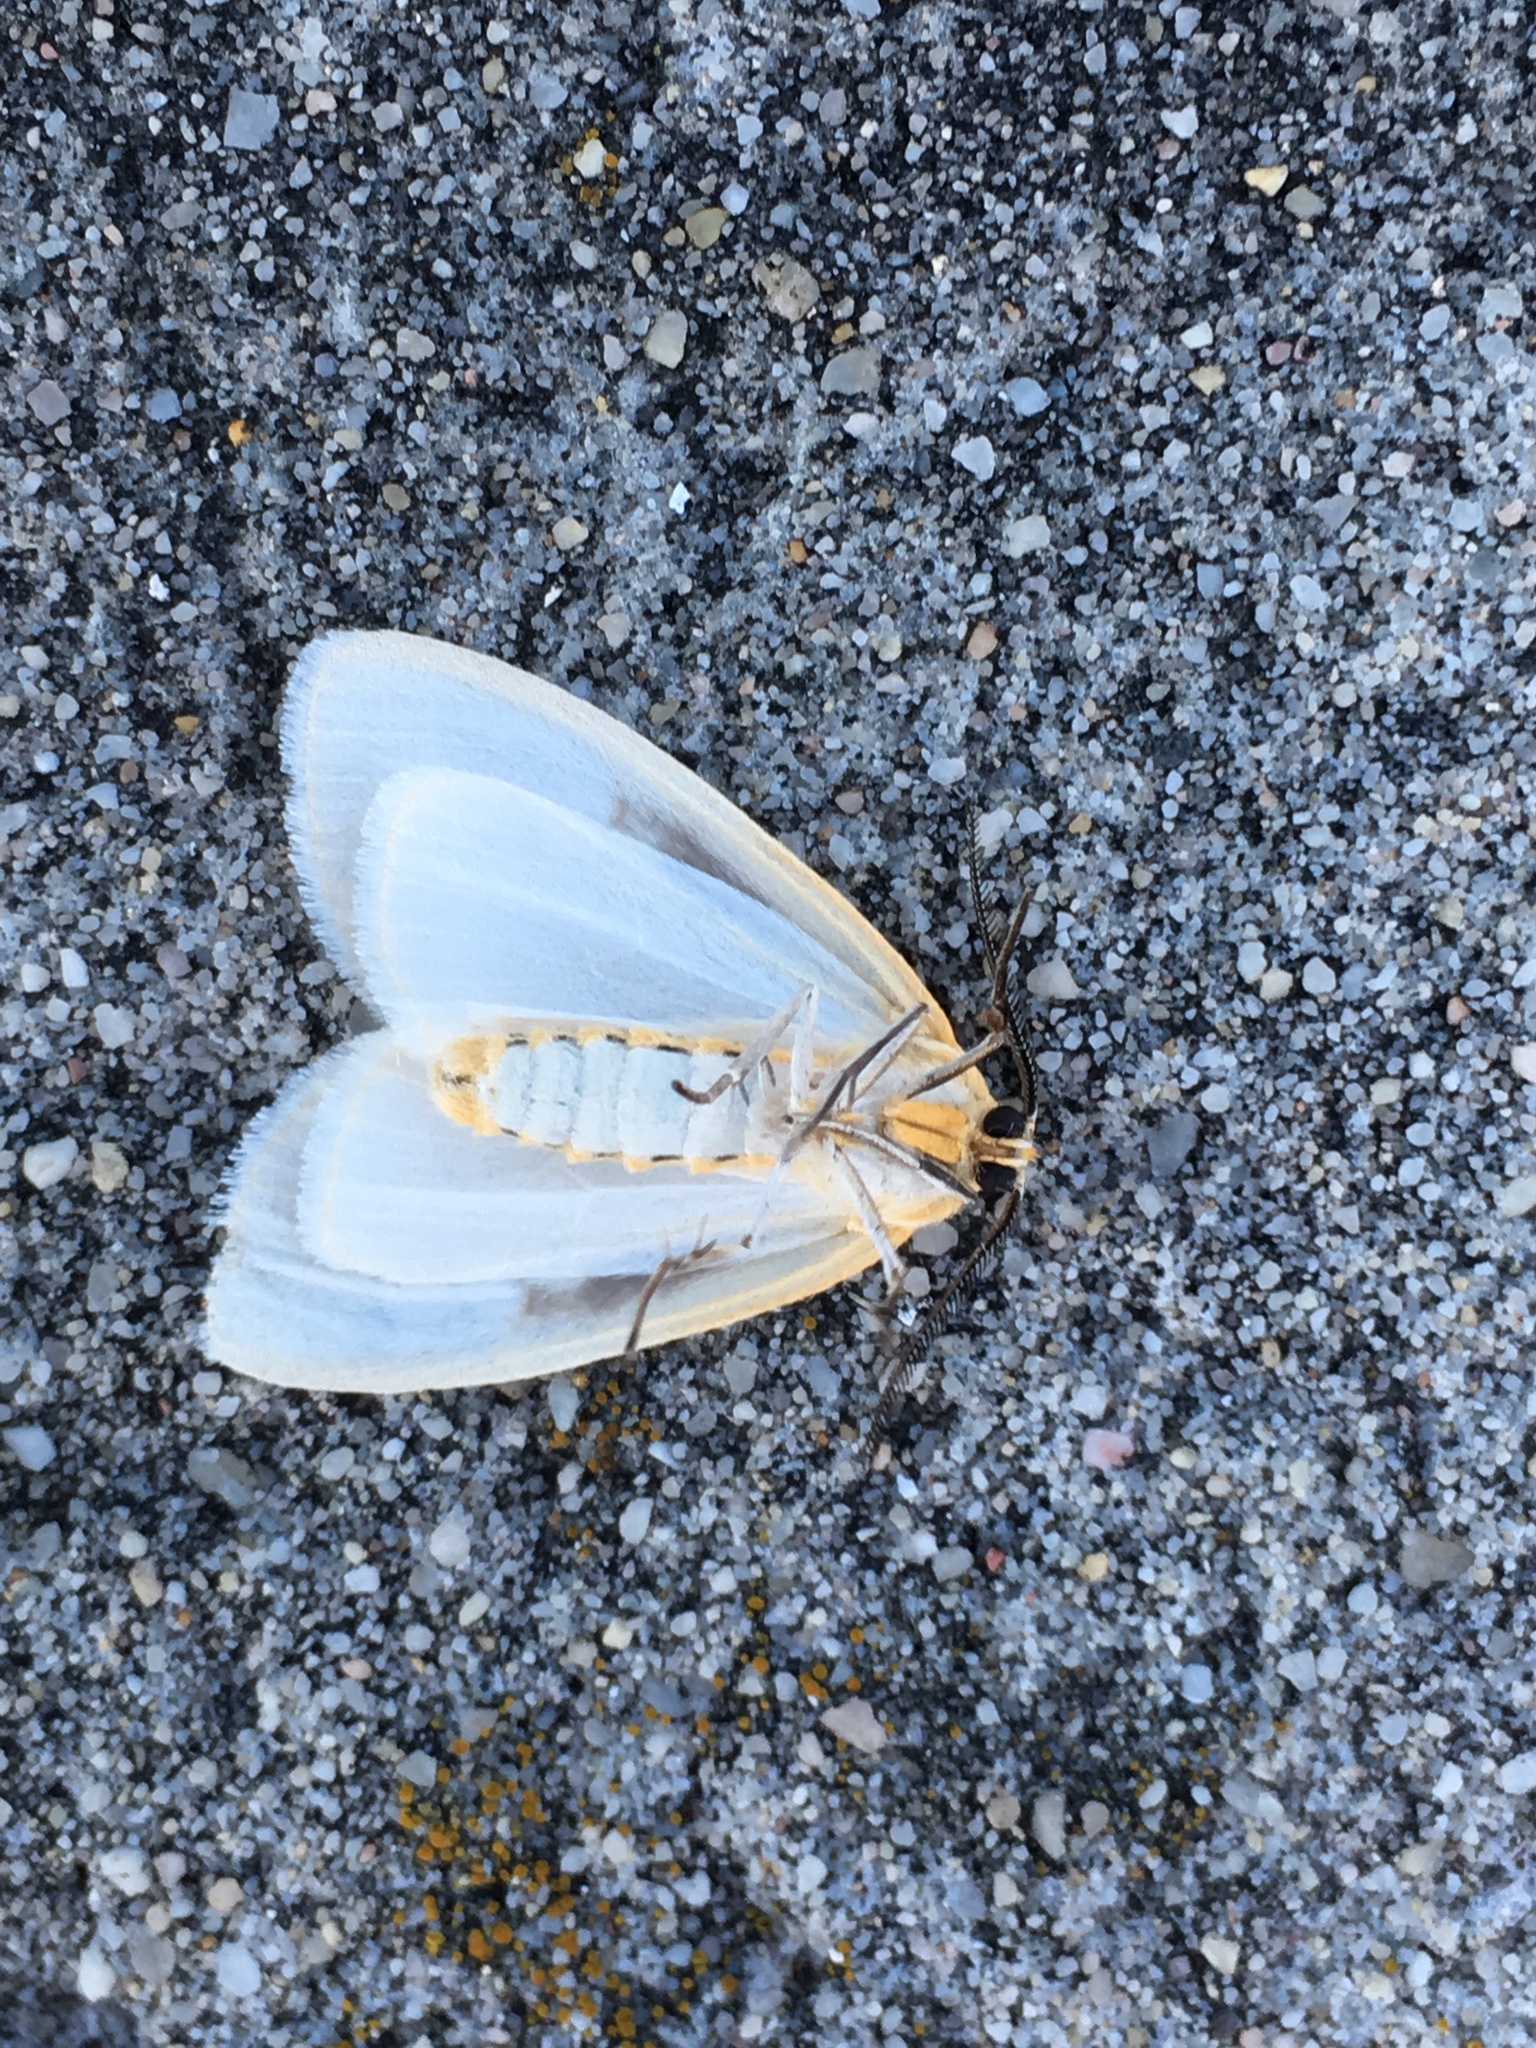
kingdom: Animalia
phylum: Arthropoda
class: Insecta
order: Lepidoptera
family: Erebidae
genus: Cycnia
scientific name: Cycnia tenera
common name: Delicate cycnia moth
